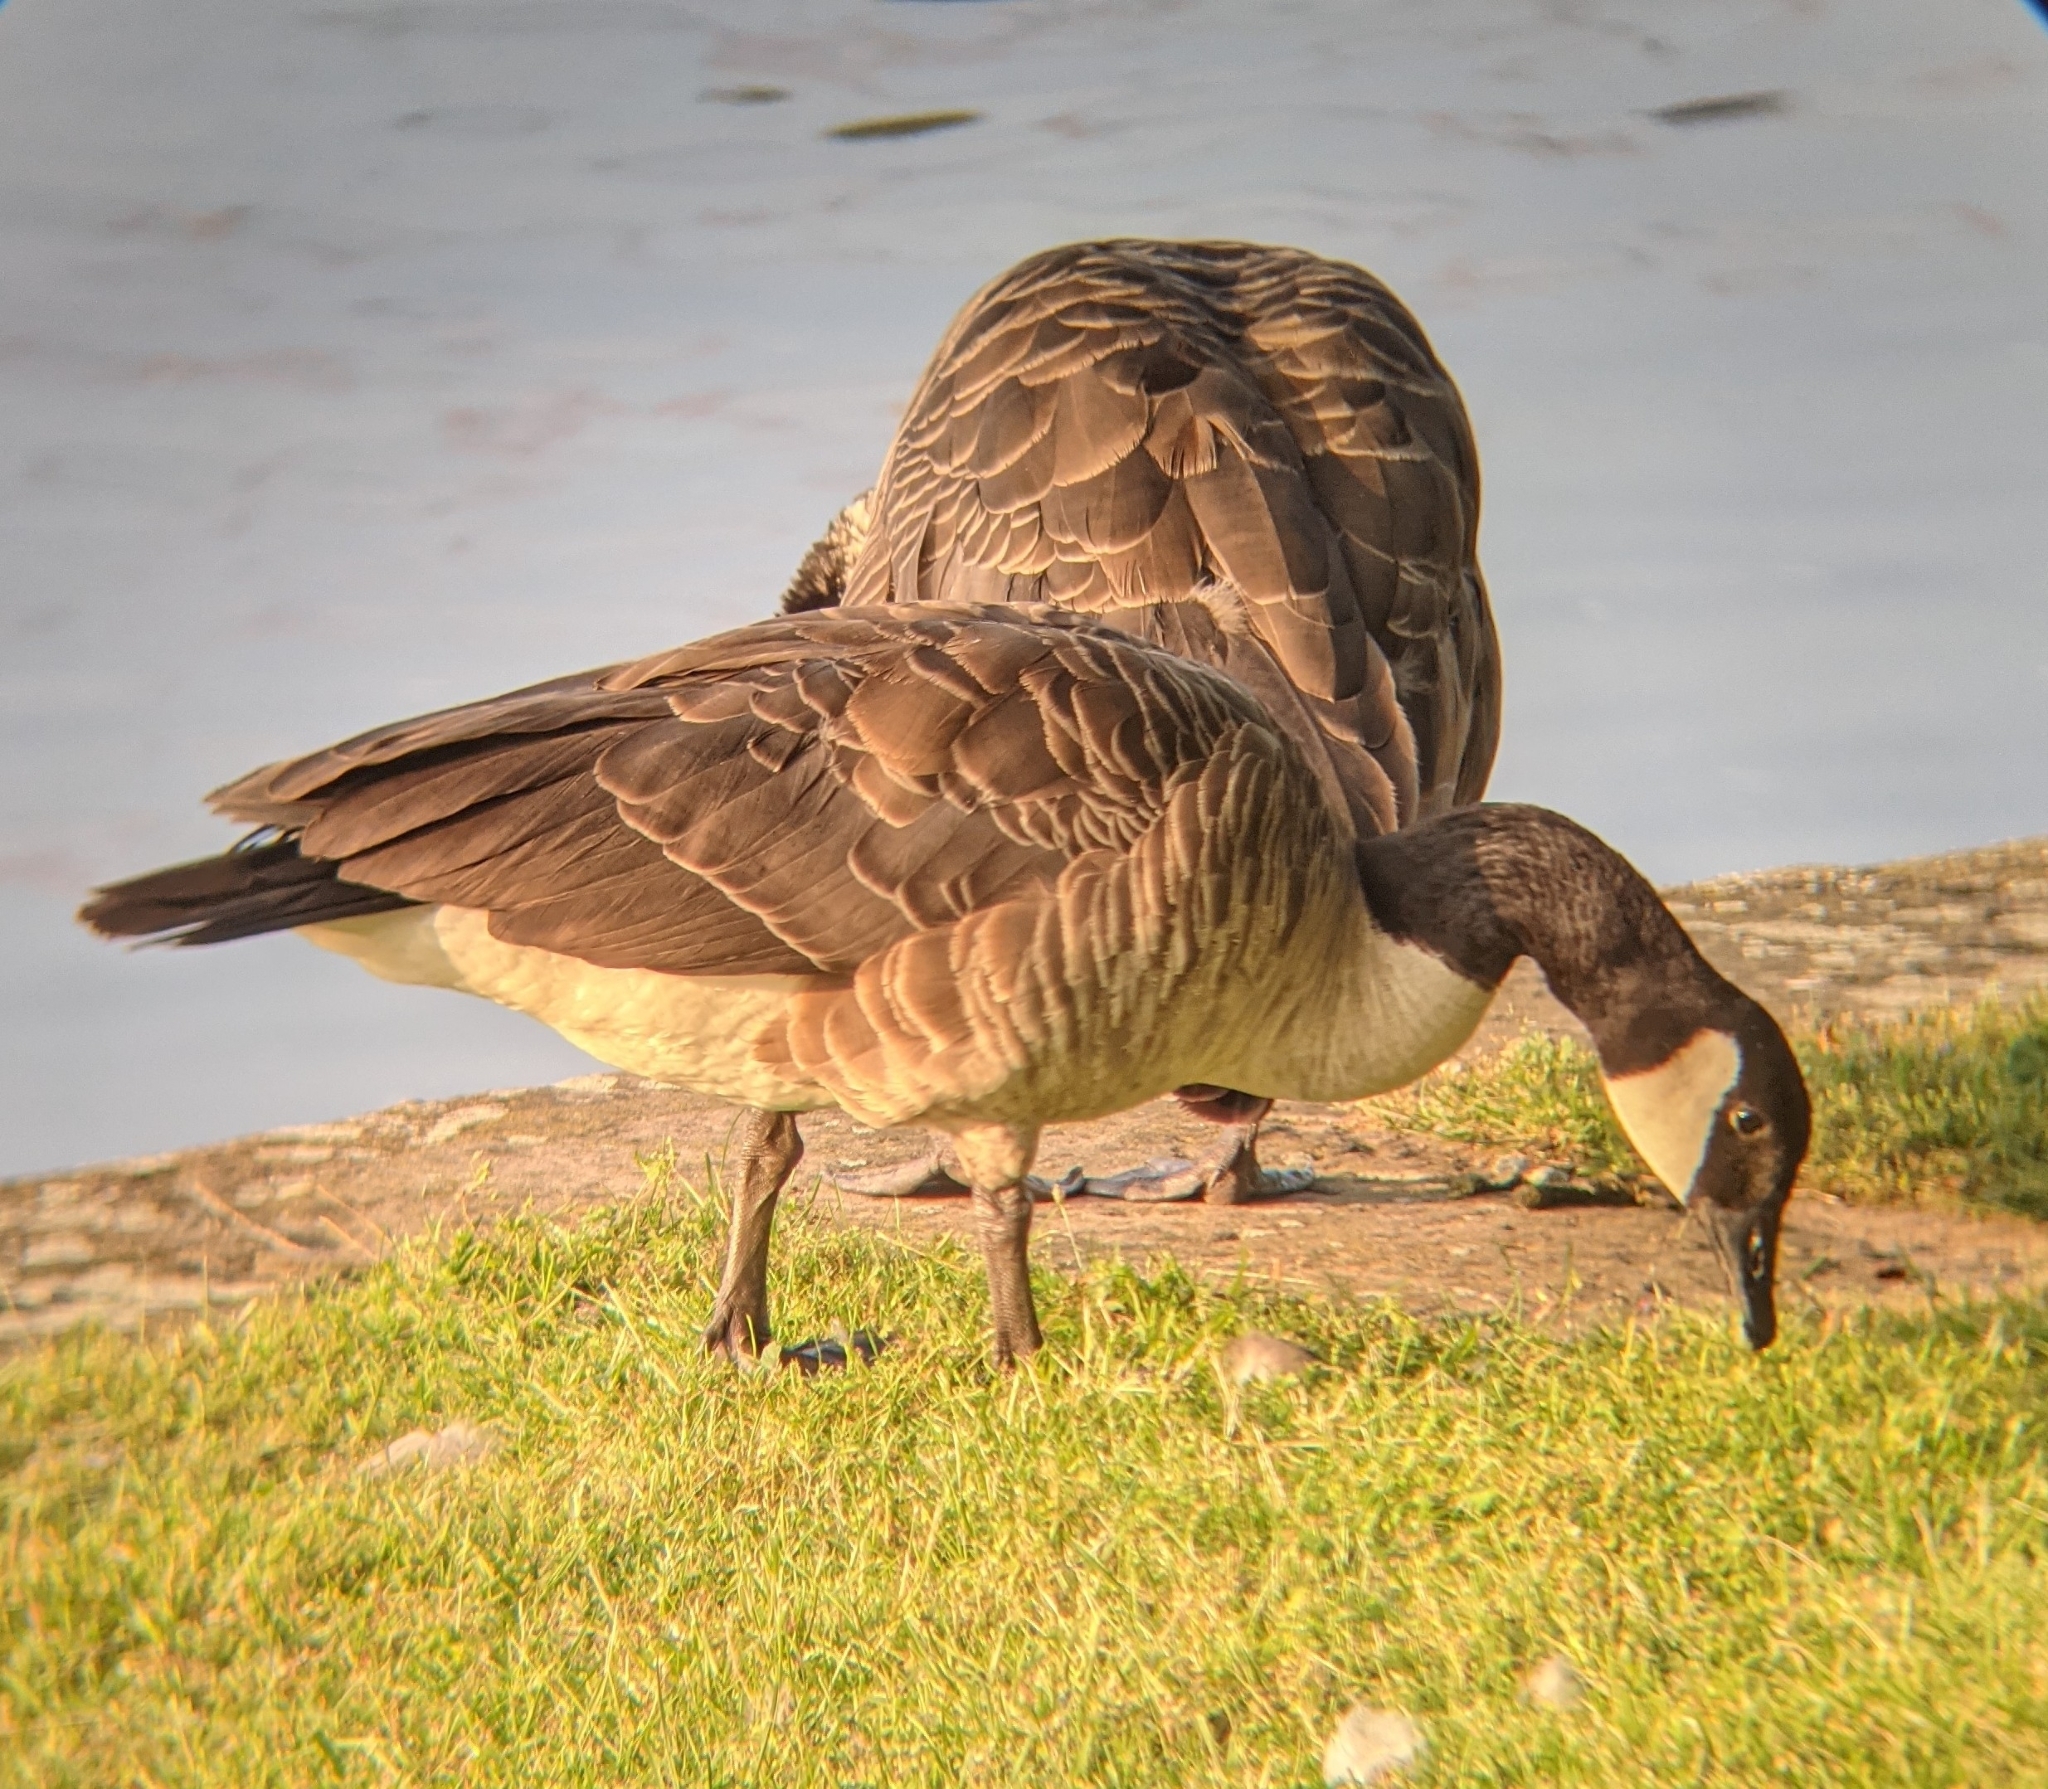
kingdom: Animalia
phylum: Chordata
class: Aves
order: Anseriformes
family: Anatidae
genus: Branta
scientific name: Branta canadensis
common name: Canada goose
